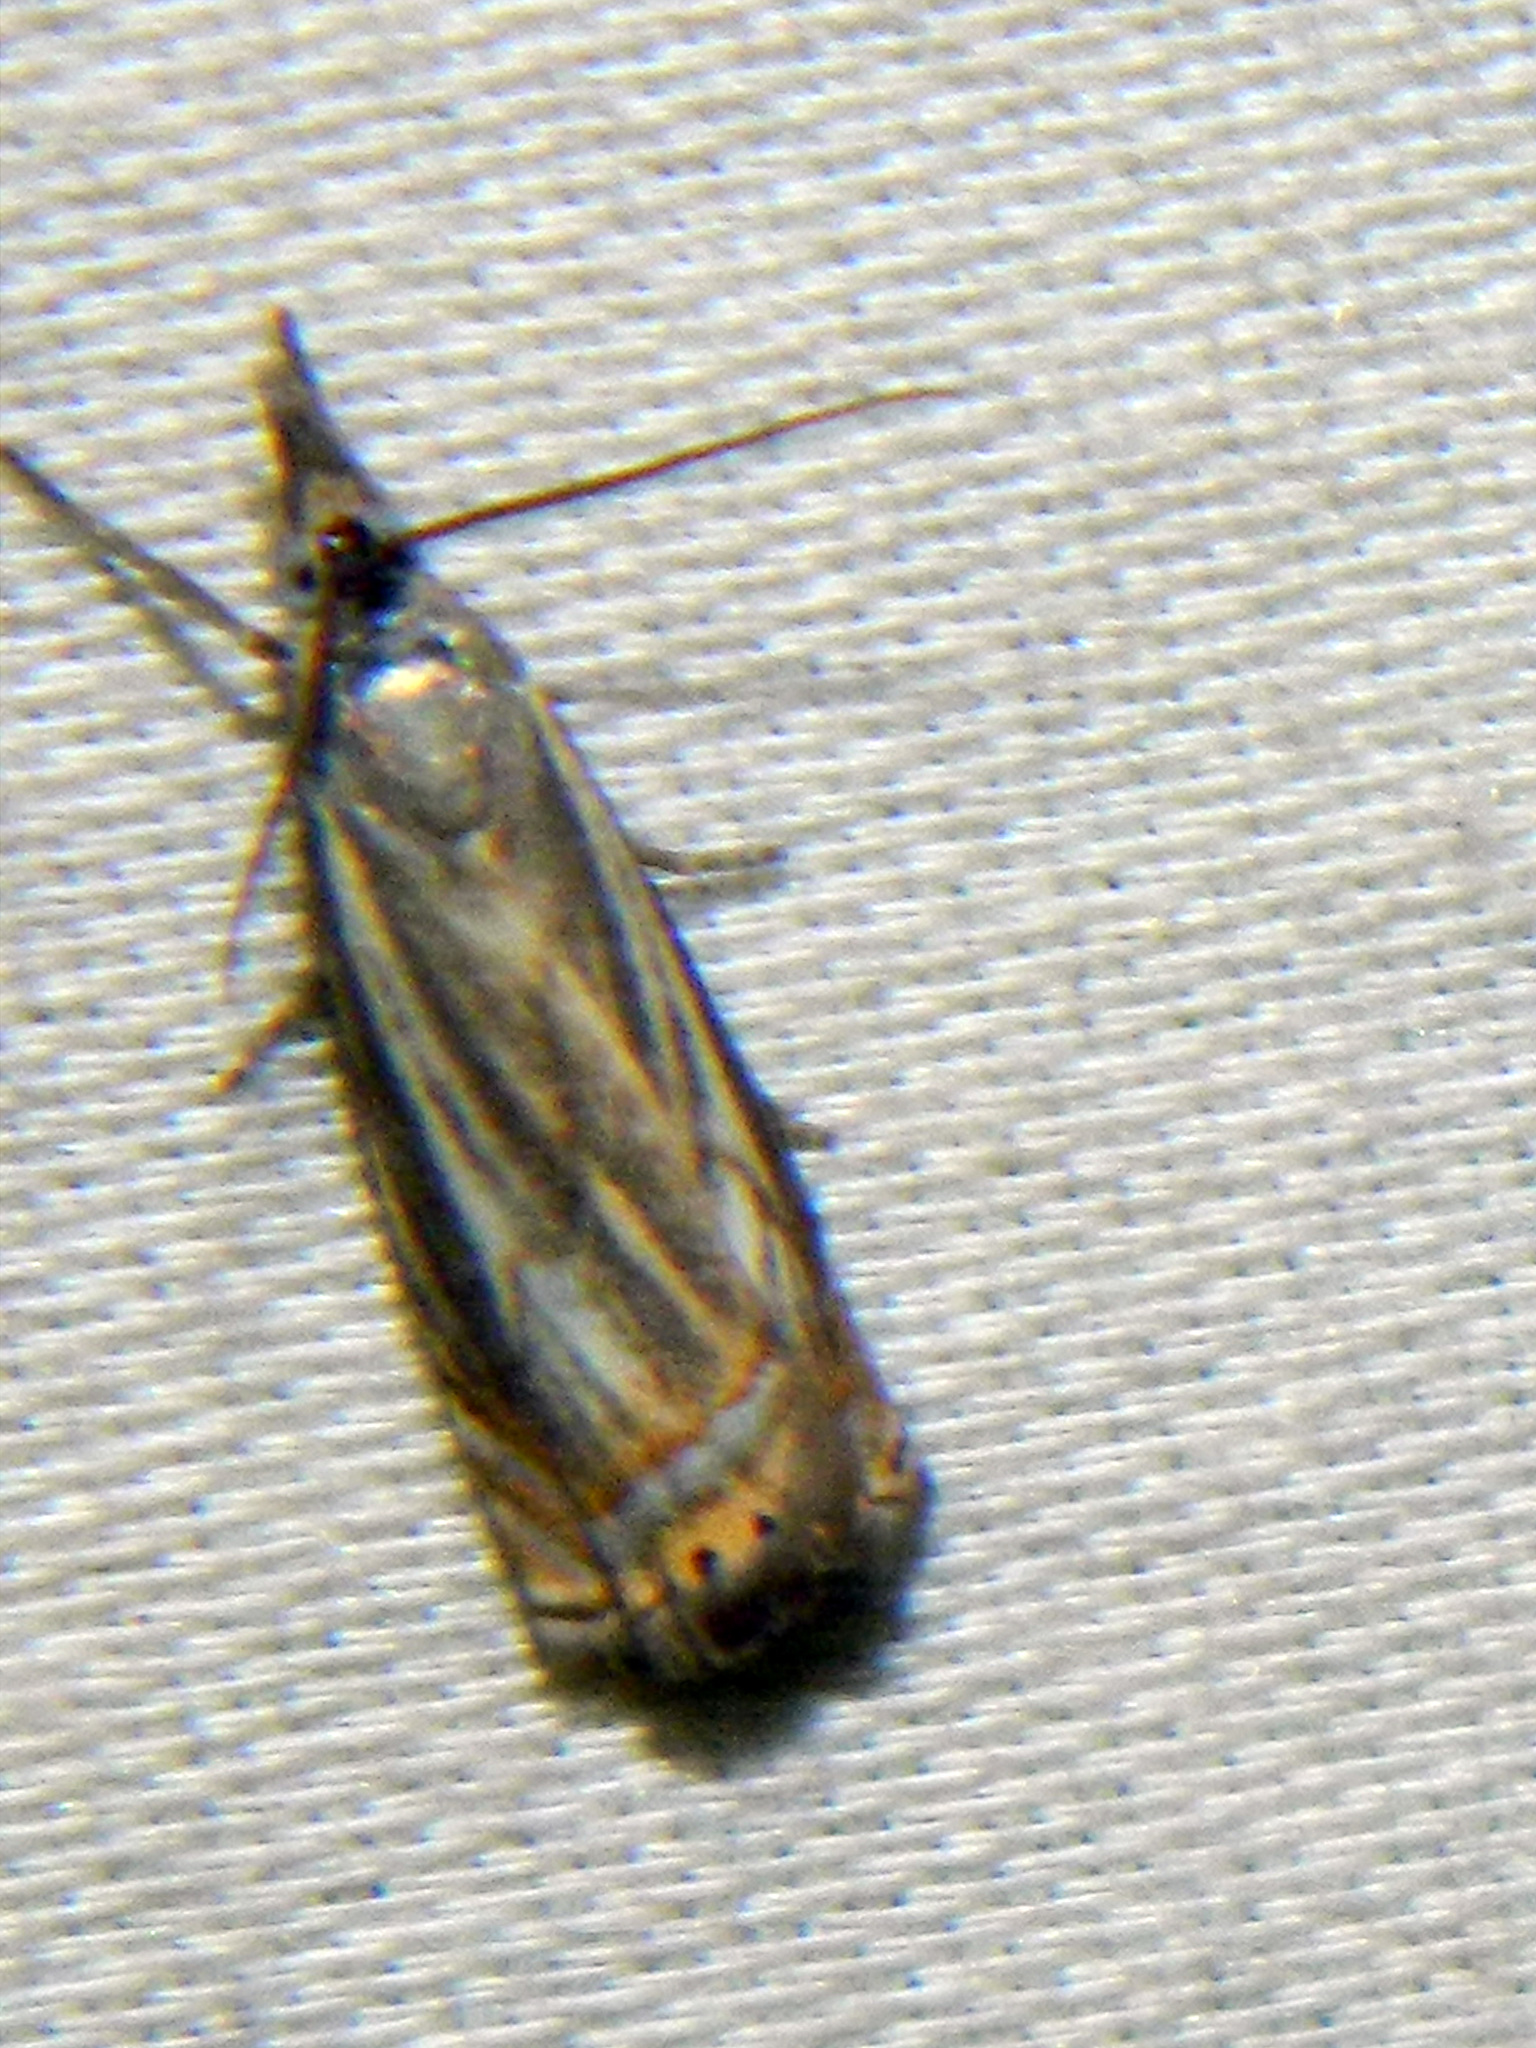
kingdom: Animalia
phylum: Arthropoda
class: Insecta
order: Lepidoptera
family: Crambidae
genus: Chrysoteuchia
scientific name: Chrysoteuchia topiarius
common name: Topiary grass-veneer
